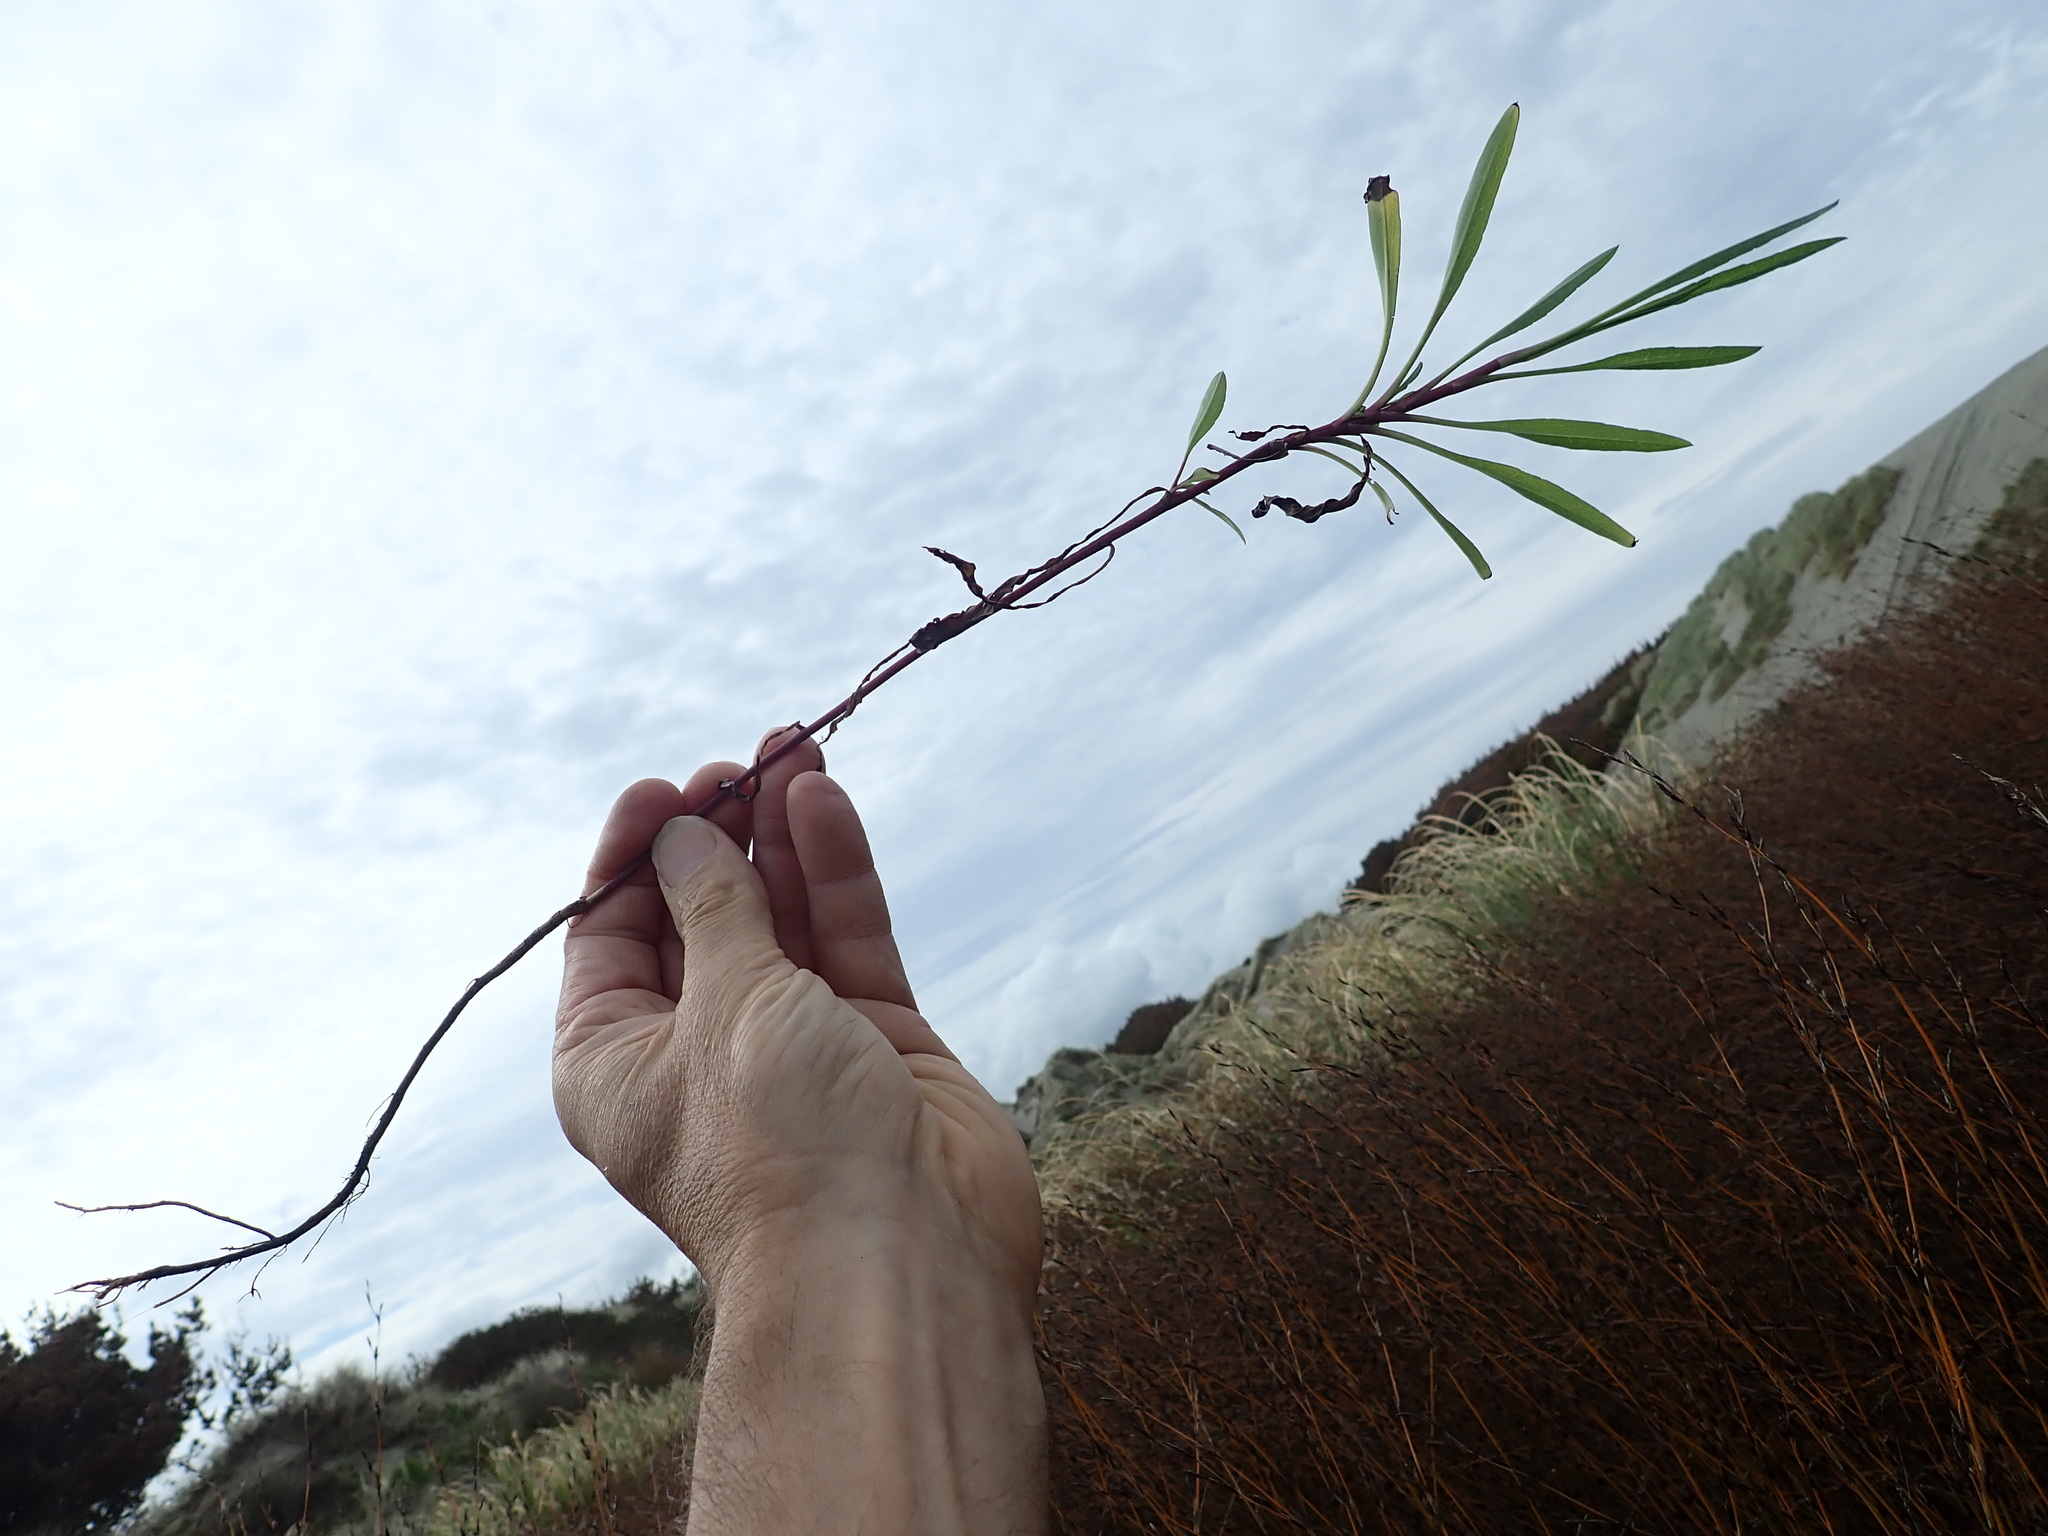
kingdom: Plantae
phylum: Tracheophyta
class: Liliopsida
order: Liliales
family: Liliaceae
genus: Lilium
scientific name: Lilium formosanum
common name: Formosa lily
